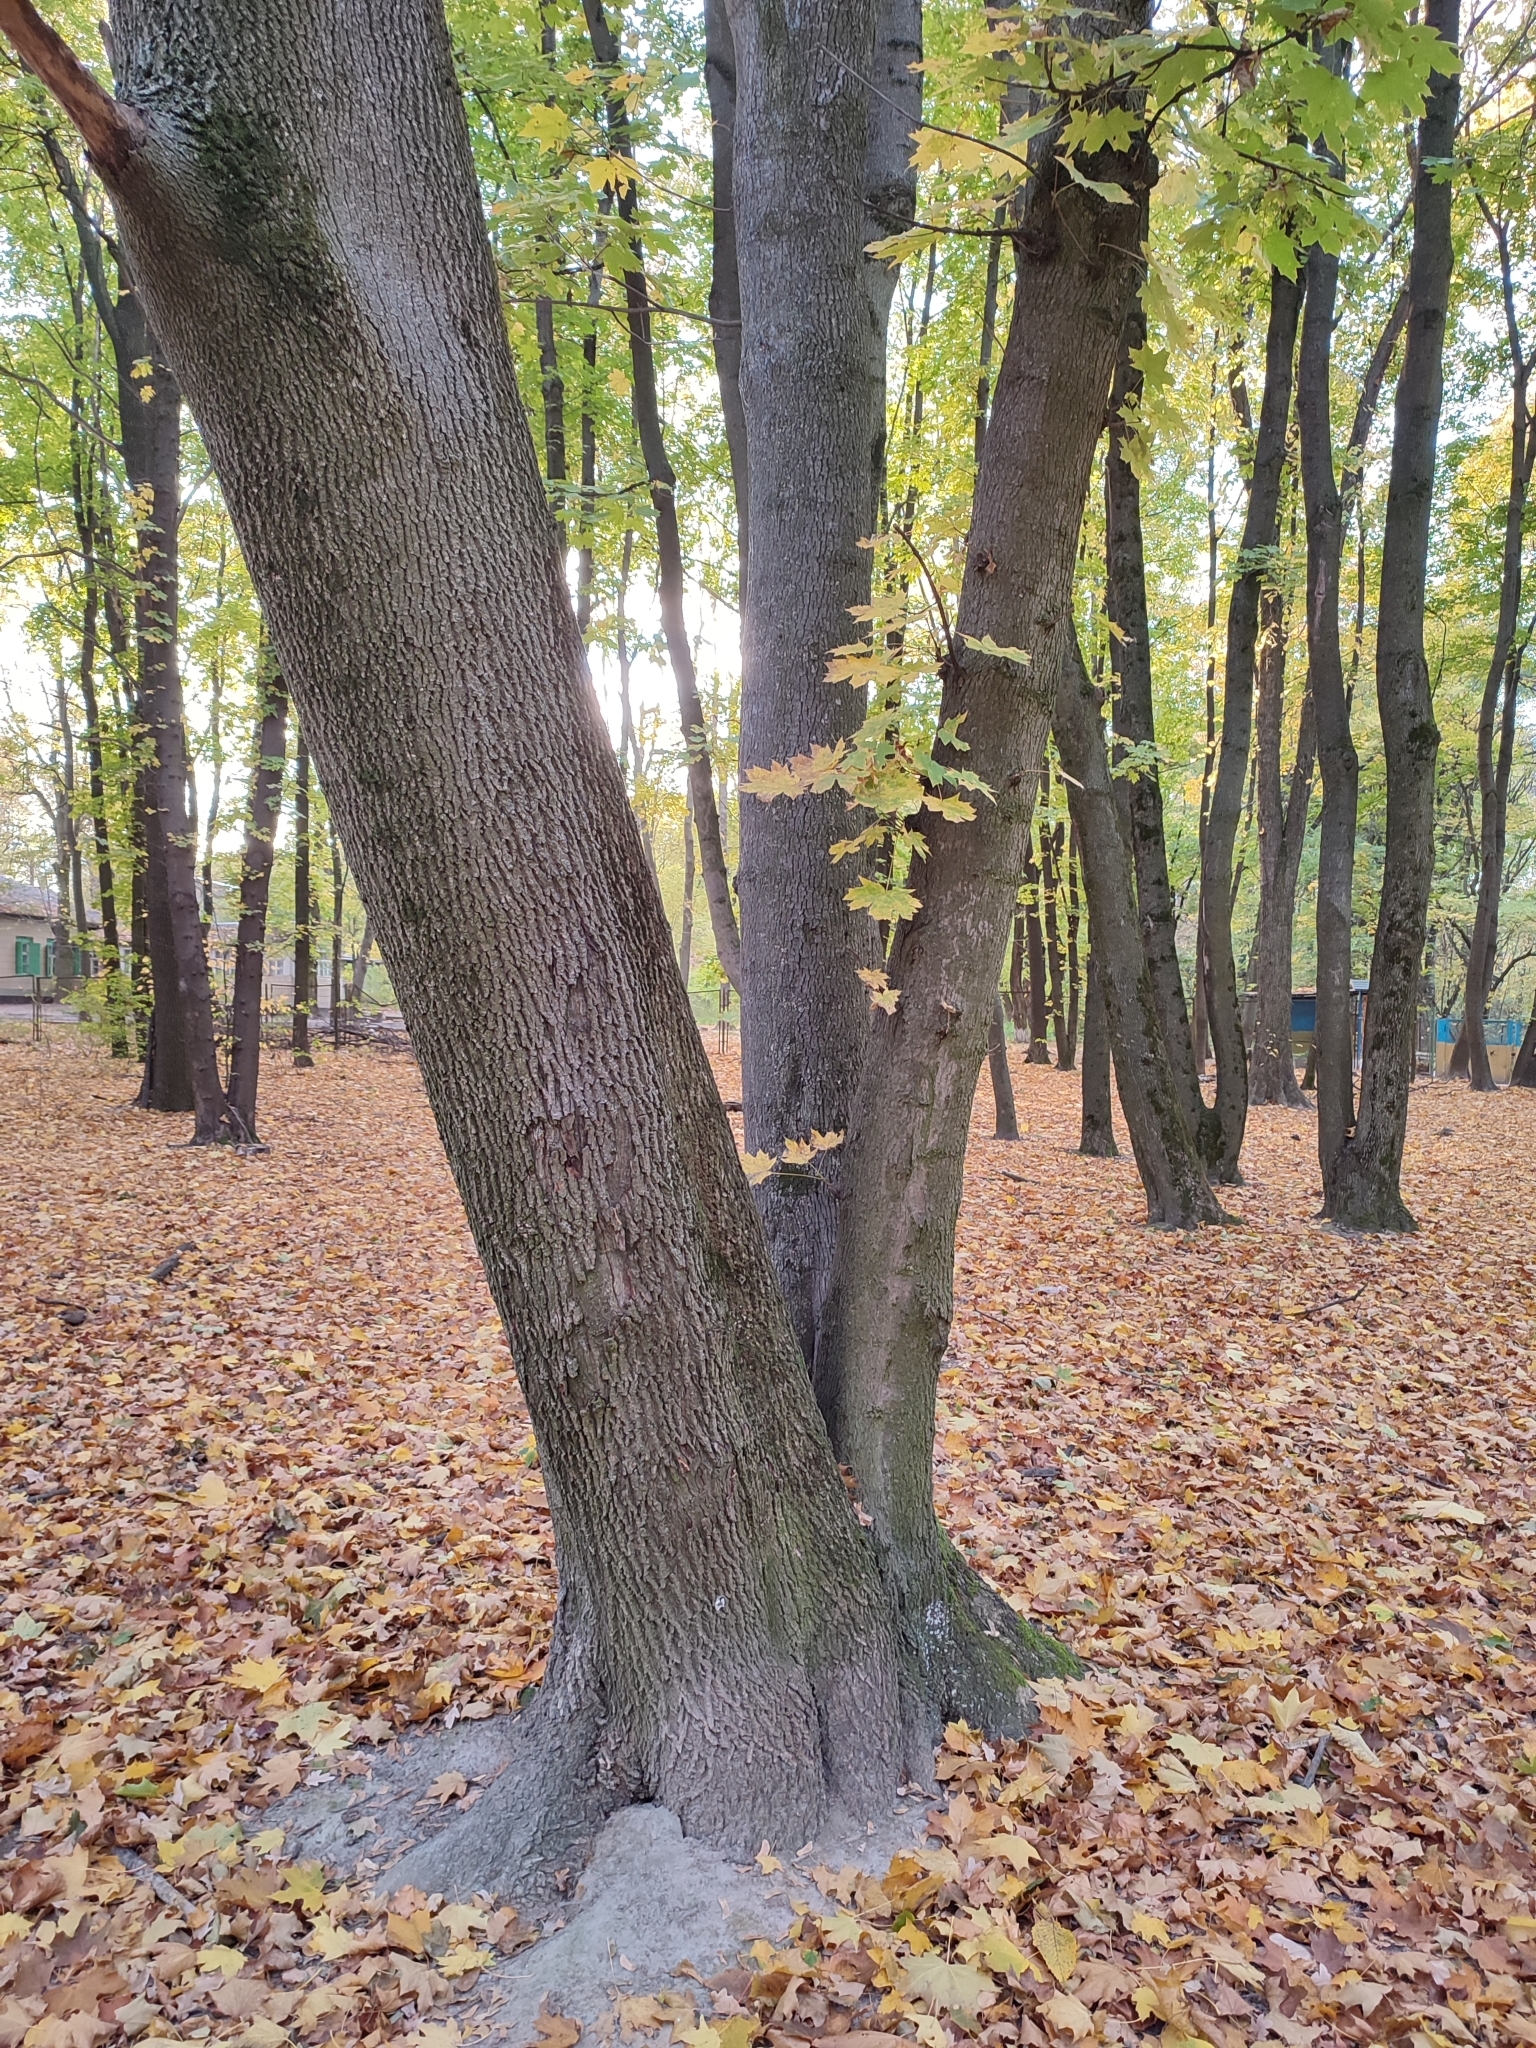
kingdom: Plantae
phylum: Tracheophyta
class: Magnoliopsida
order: Sapindales
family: Sapindaceae
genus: Acer
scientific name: Acer platanoides
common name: Norway maple
